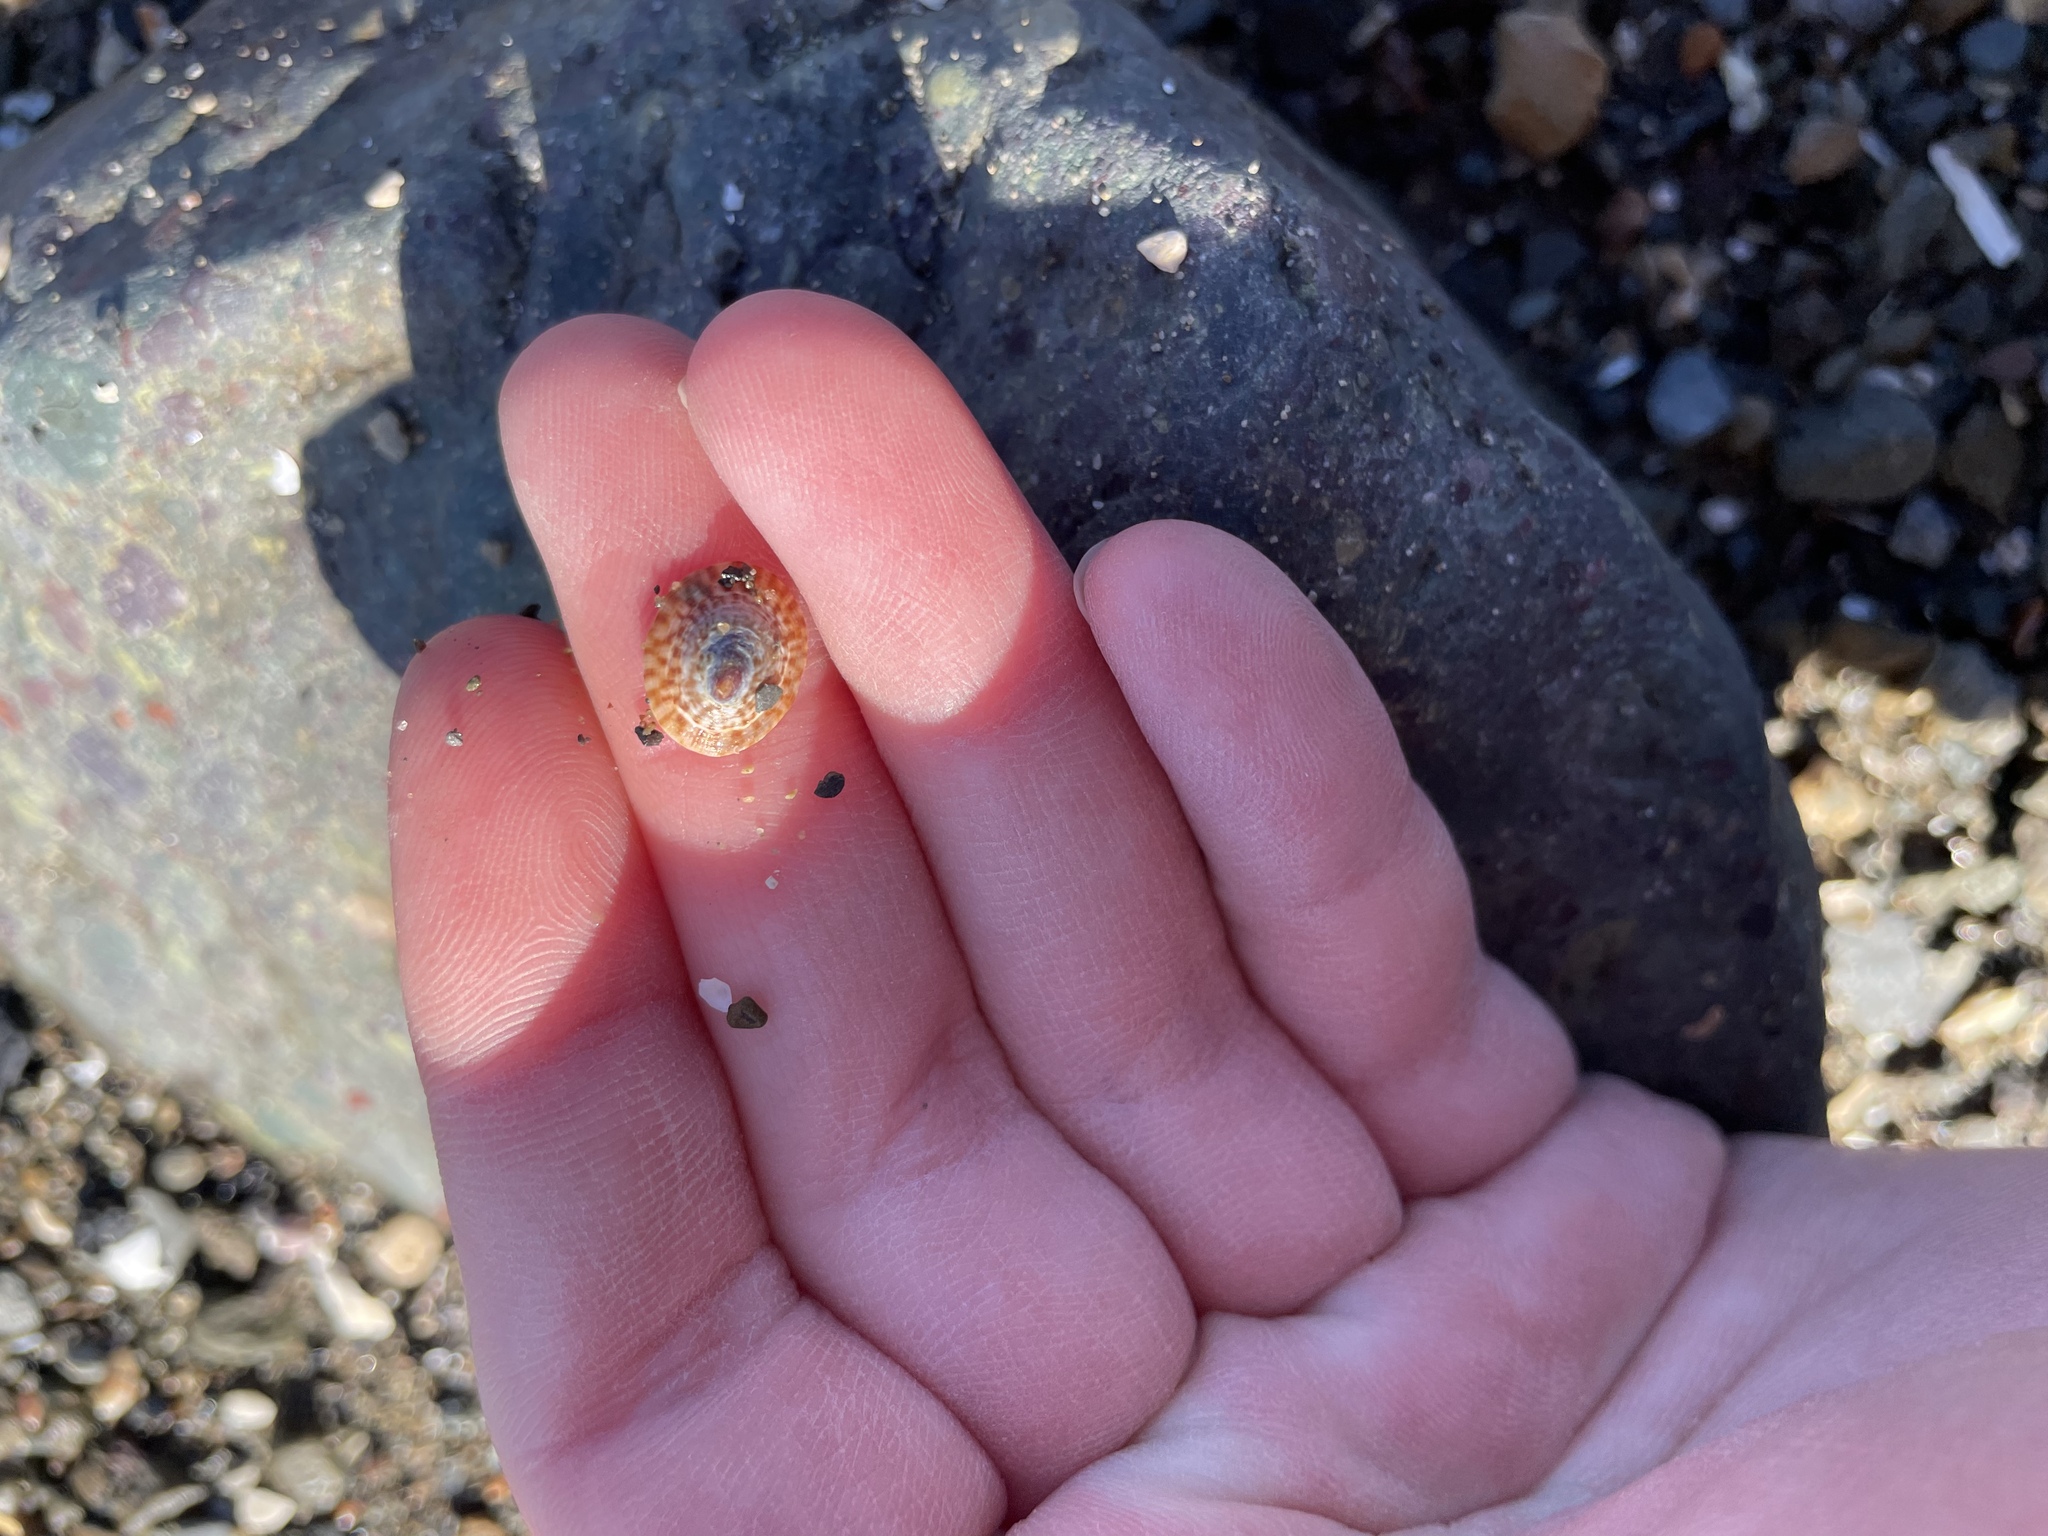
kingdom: Animalia
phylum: Mollusca
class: Gastropoda
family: Lottiidae
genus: Testudinalia
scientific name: Testudinalia testudinalis
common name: Common tortoiseshell limpet
